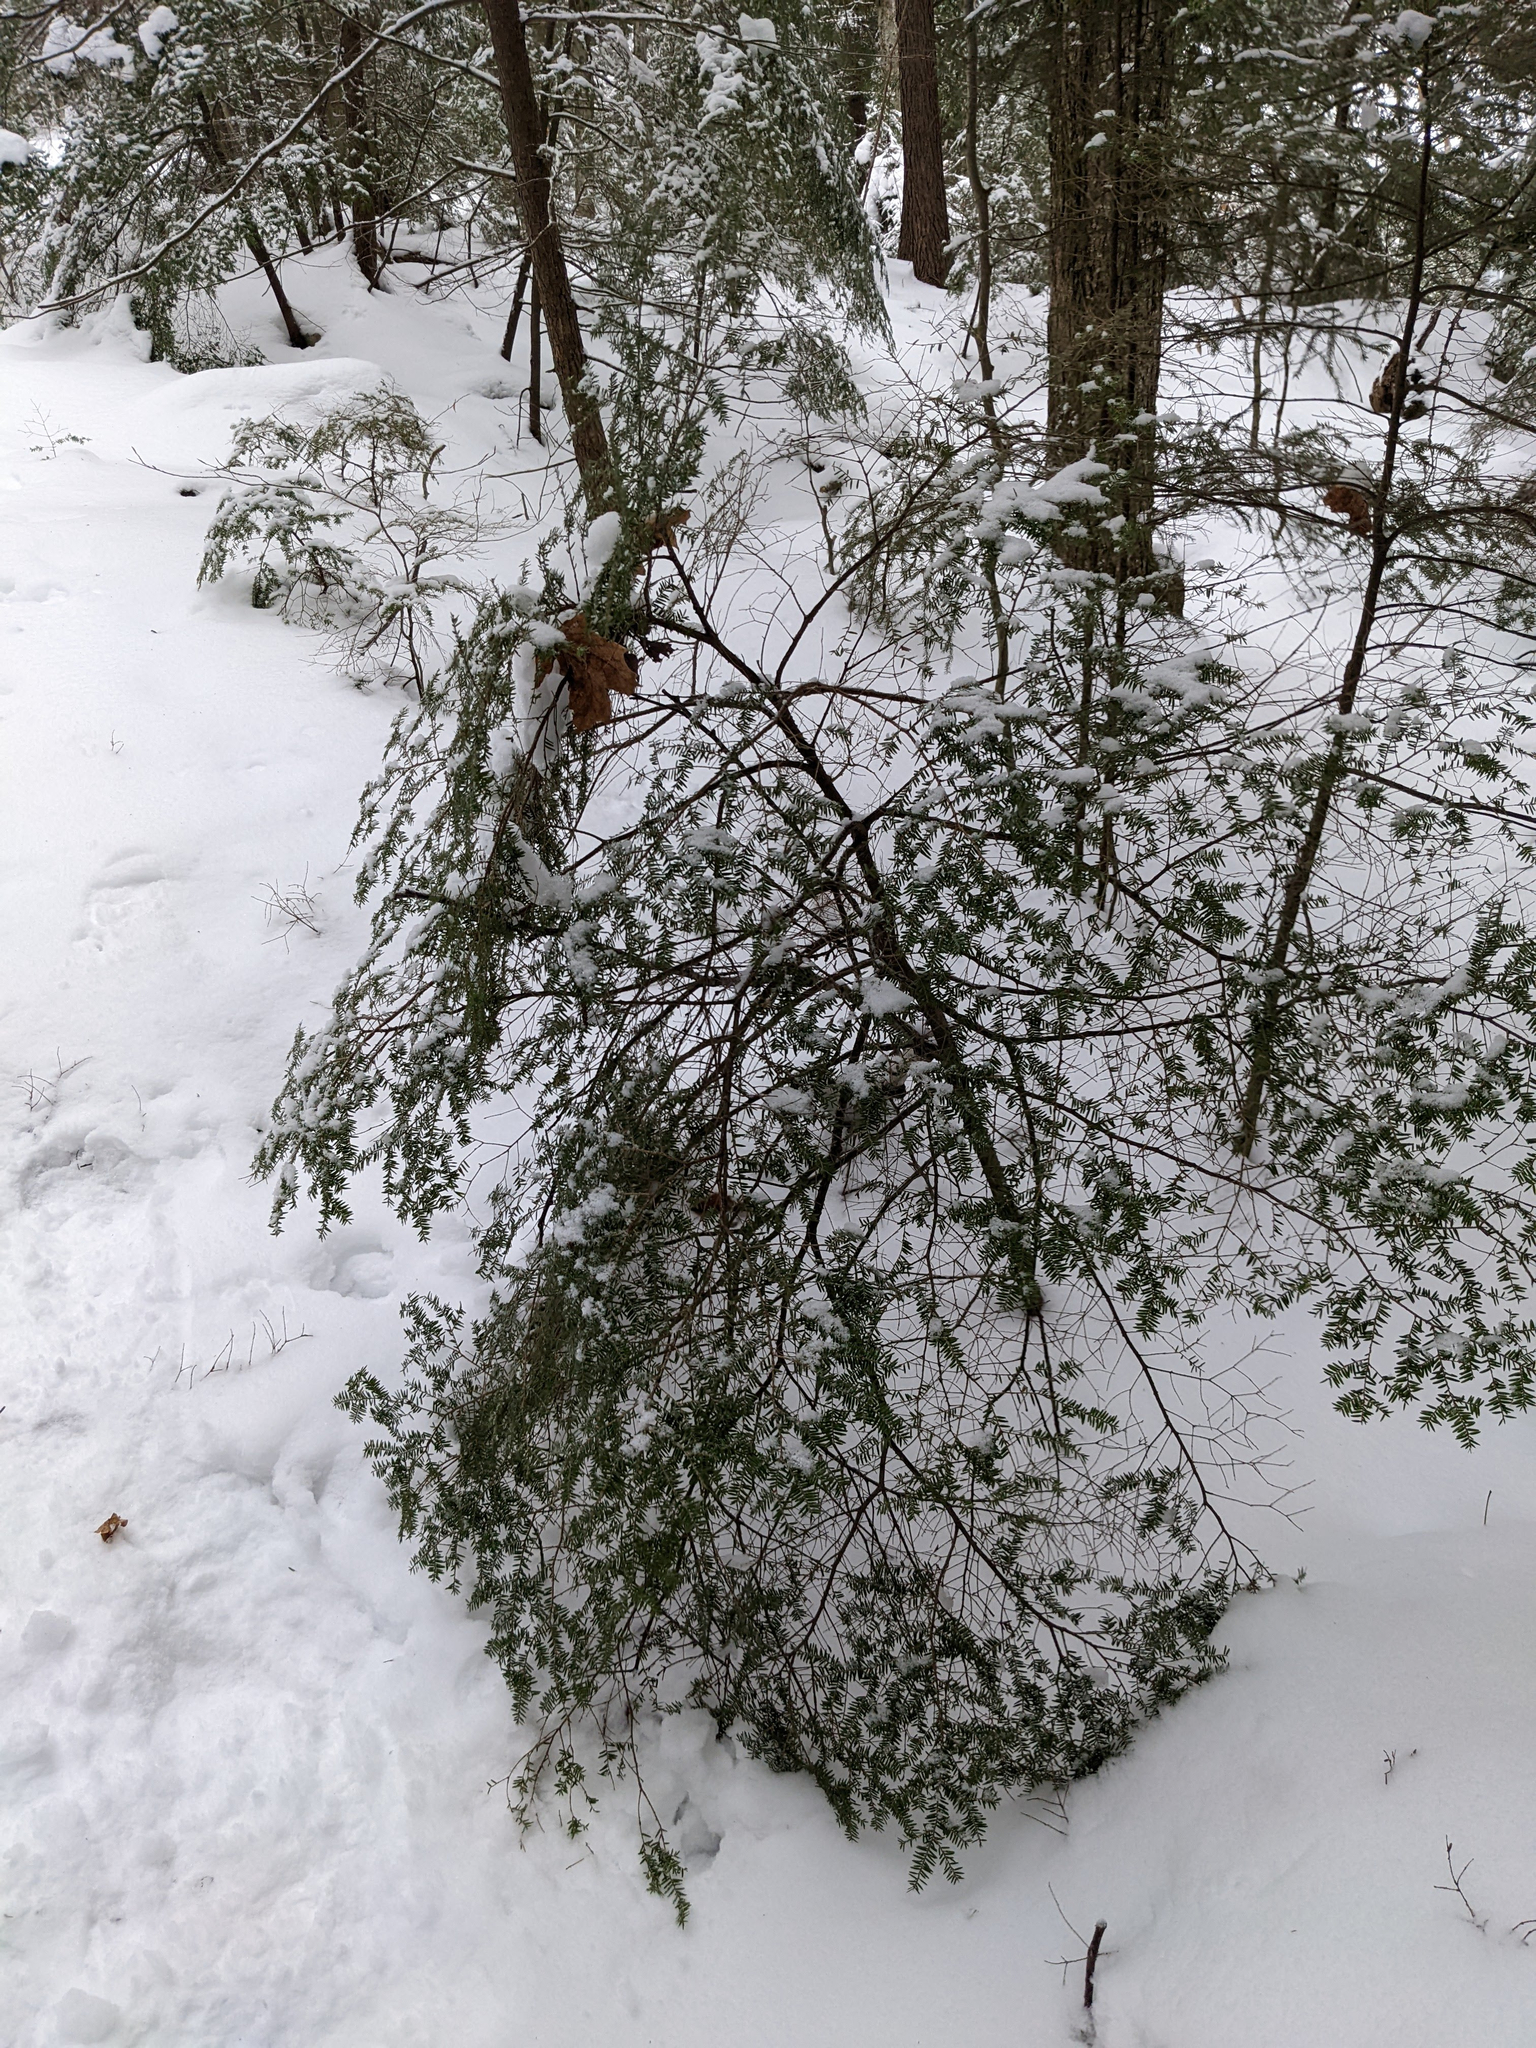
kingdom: Plantae
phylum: Tracheophyta
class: Pinopsida
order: Pinales
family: Pinaceae
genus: Tsuga
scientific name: Tsuga canadensis
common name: Eastern hemlock
